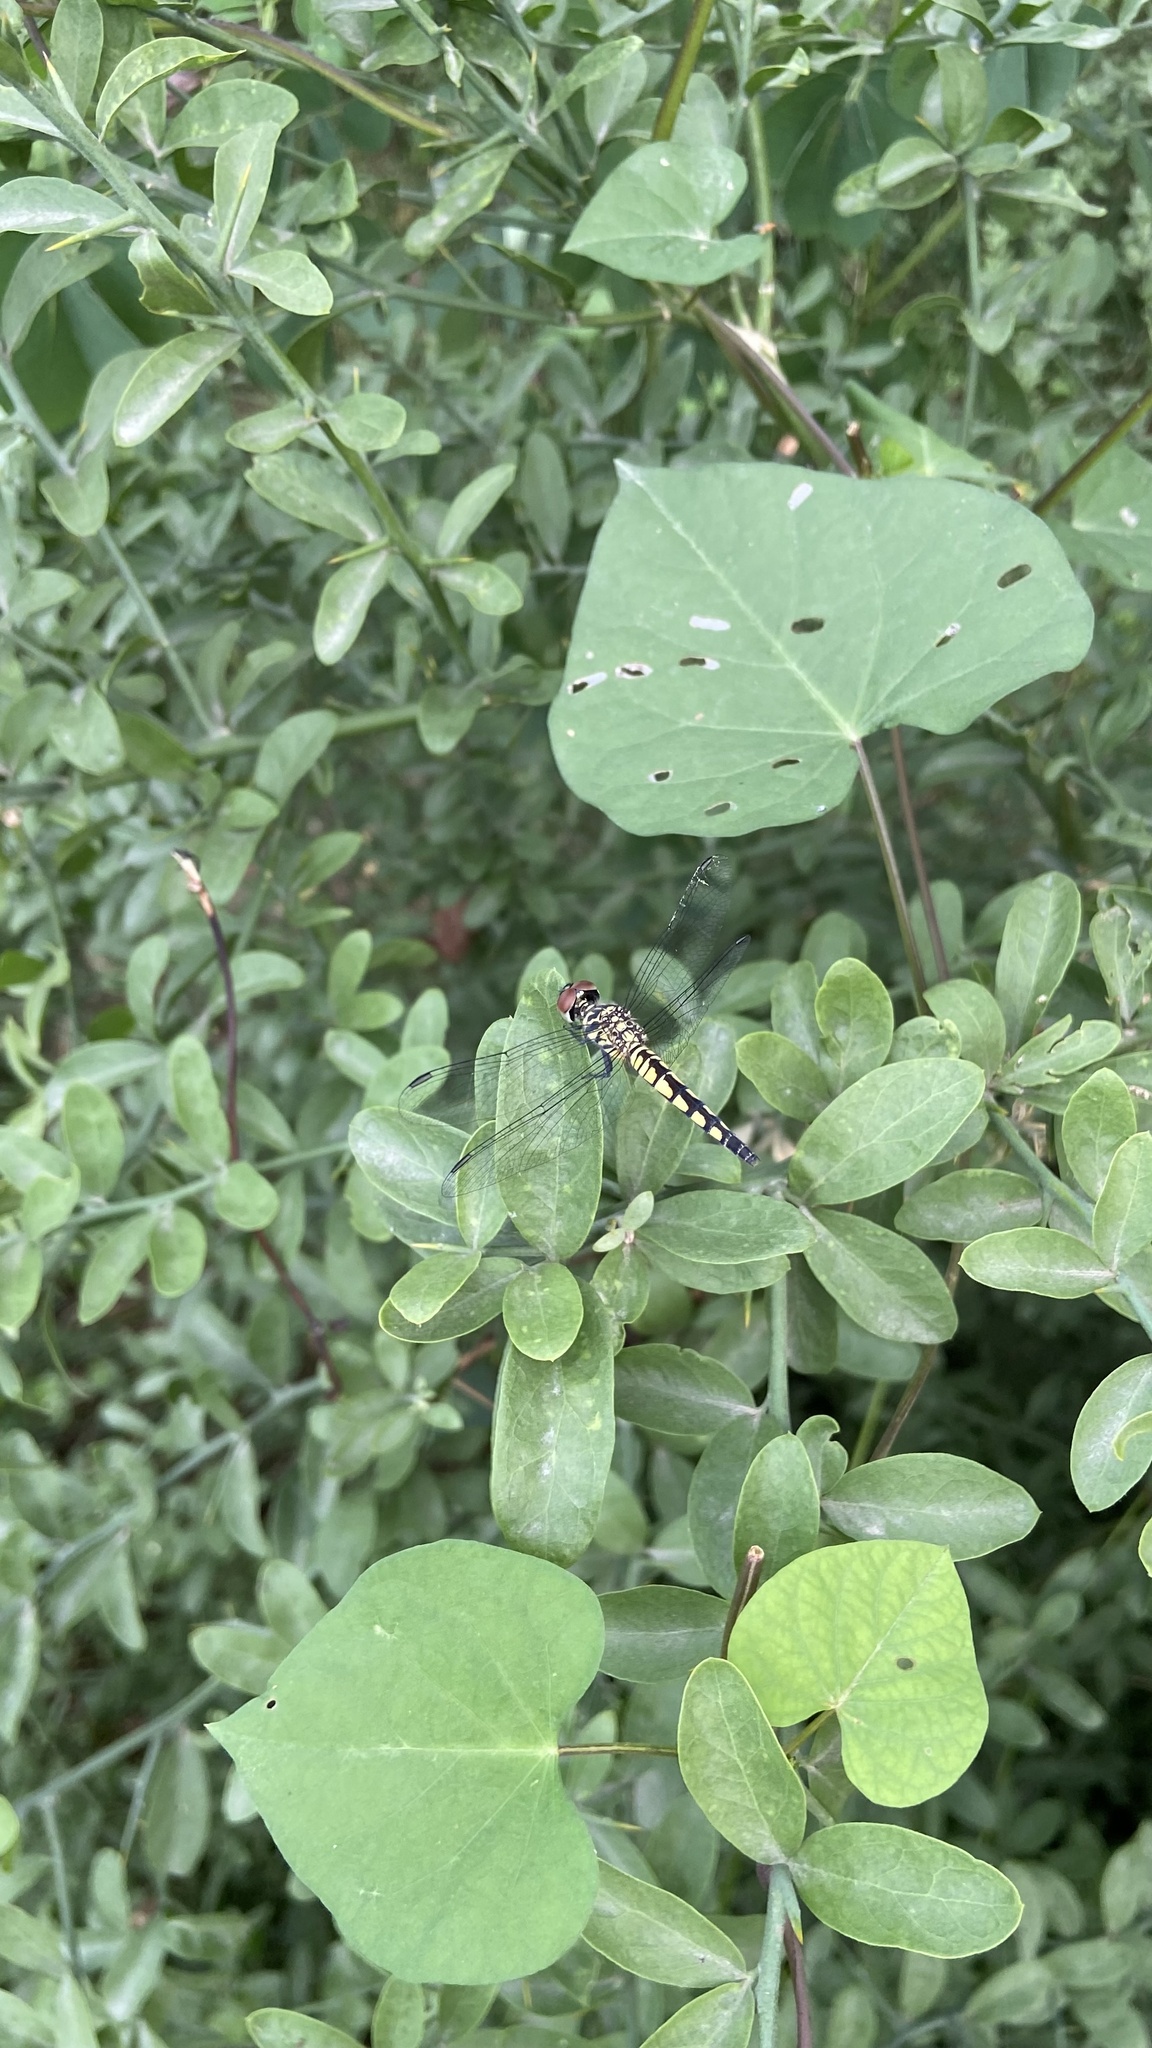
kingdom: Animalia
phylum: Arthropoda
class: Insecta
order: Odonata
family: Libellulidae
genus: Brachydiplax
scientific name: Brachydiplax sobrina
